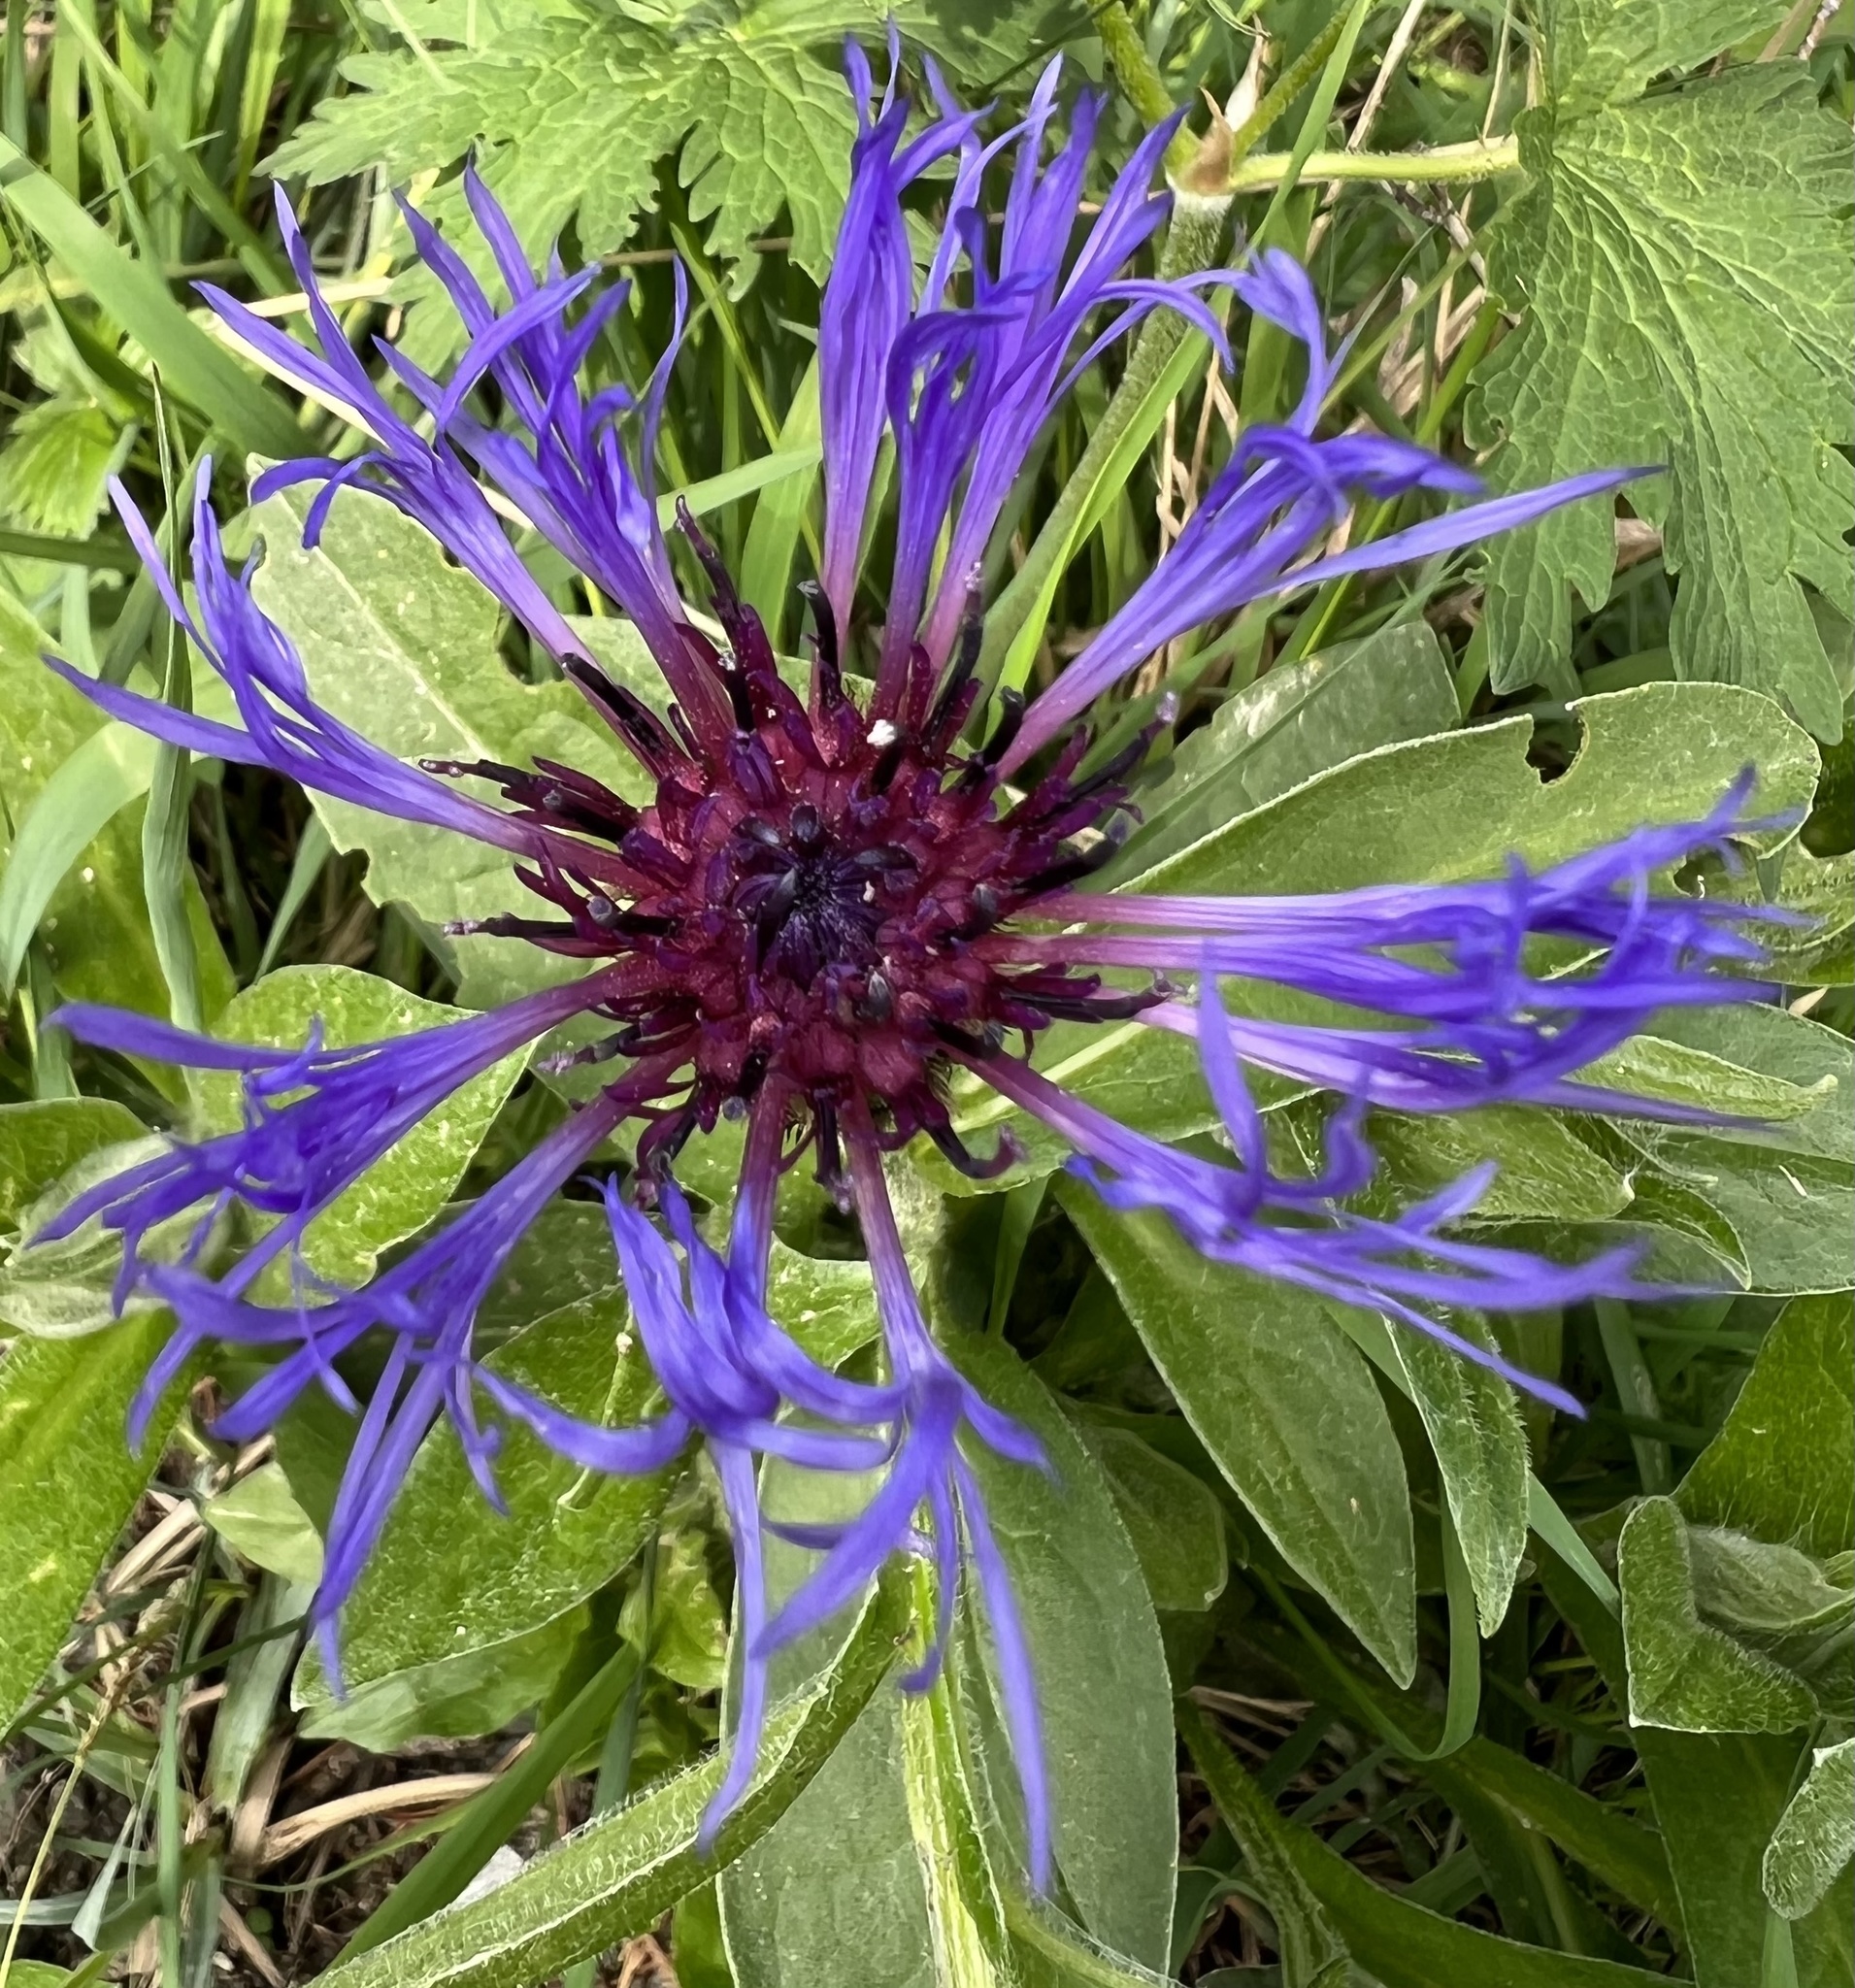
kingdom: Plantae
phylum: Tracheophyta
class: Magnoliopsida
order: Asterales
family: Asteraceae
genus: Centaurea
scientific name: Centaurea montana
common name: Perennial cornflower
